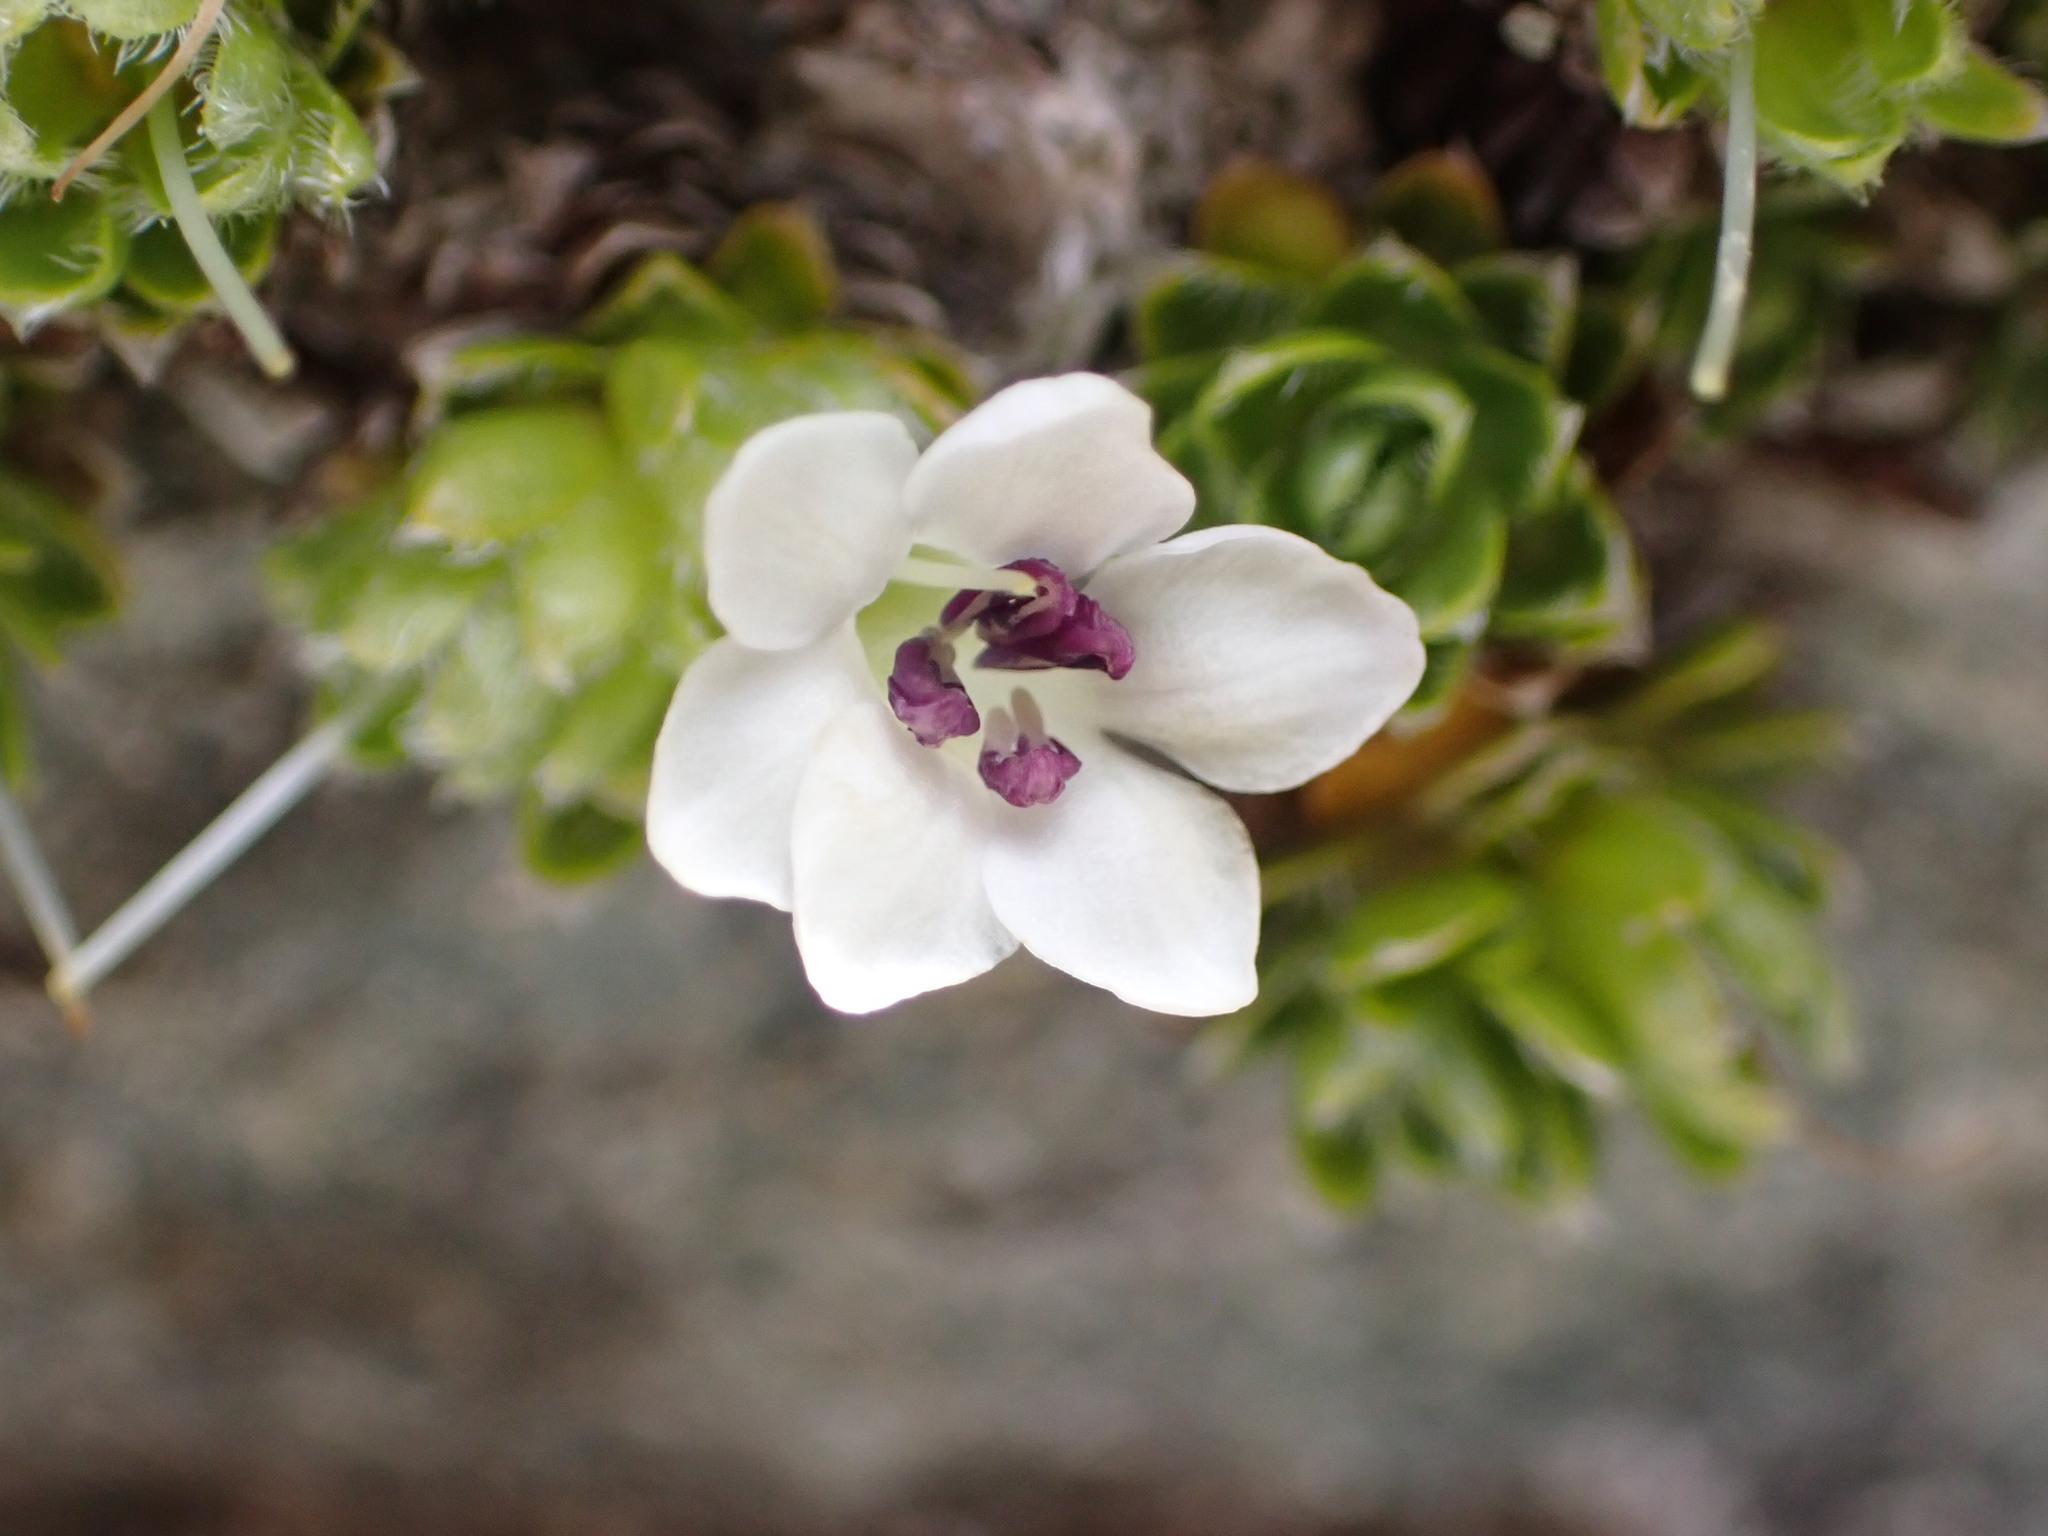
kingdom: Plantae
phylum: Tracheophyta
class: Magnoliopsida
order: Lamiales
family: Plantaginaceae
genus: Veronica
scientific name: Veronica ciliolata
